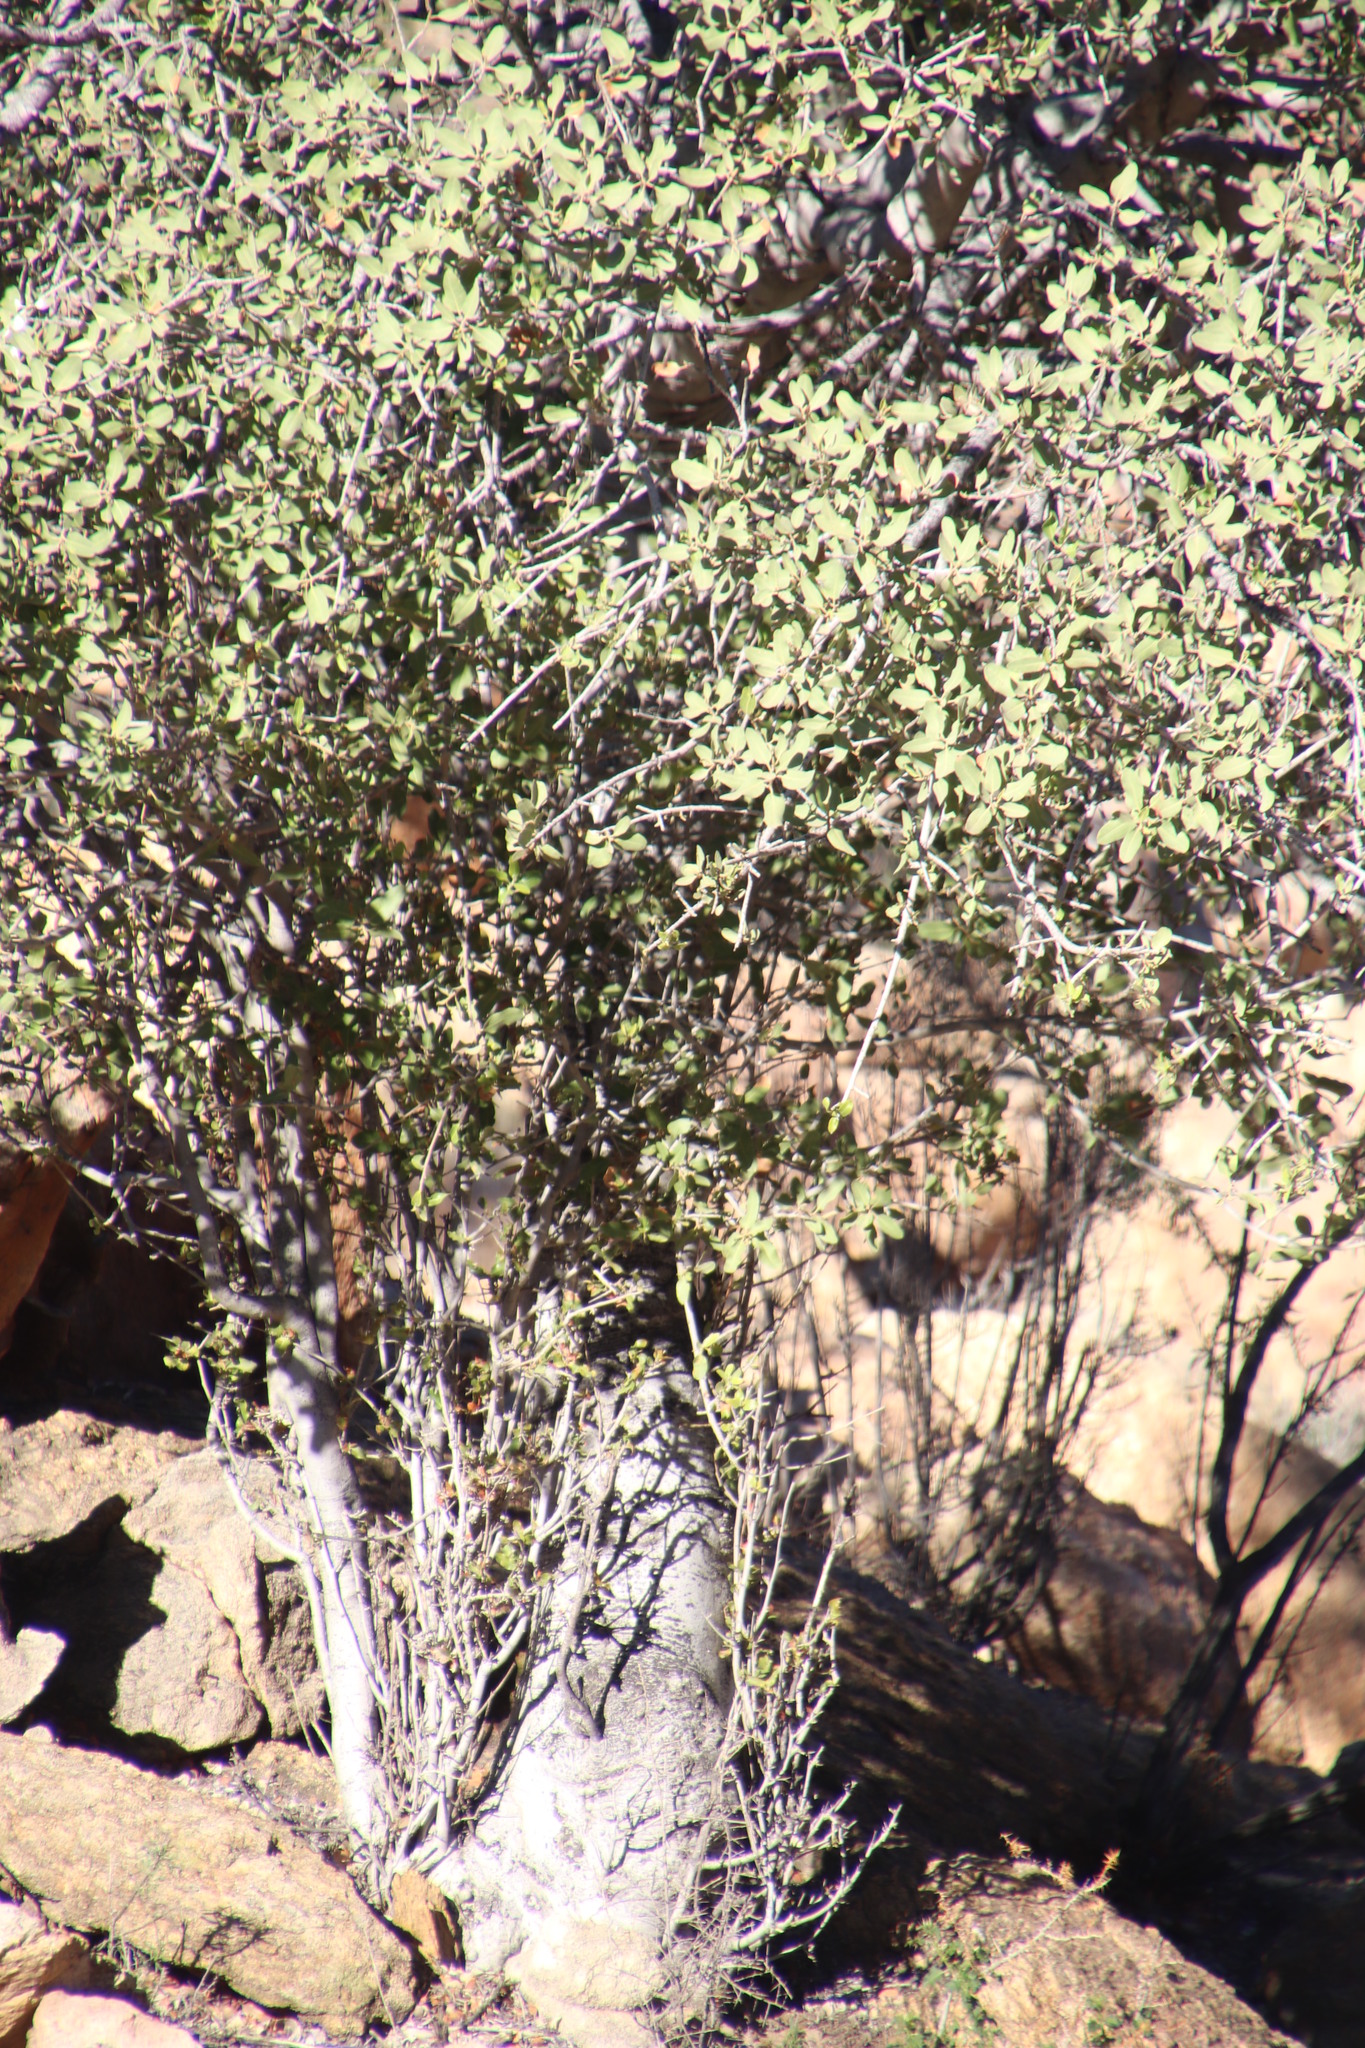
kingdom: Plantae
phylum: Tracheophyta
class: Magnoliopsida
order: Brassicales
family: Capparaceae
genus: Boscia
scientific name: Boscia albitrunca
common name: Caper bush
